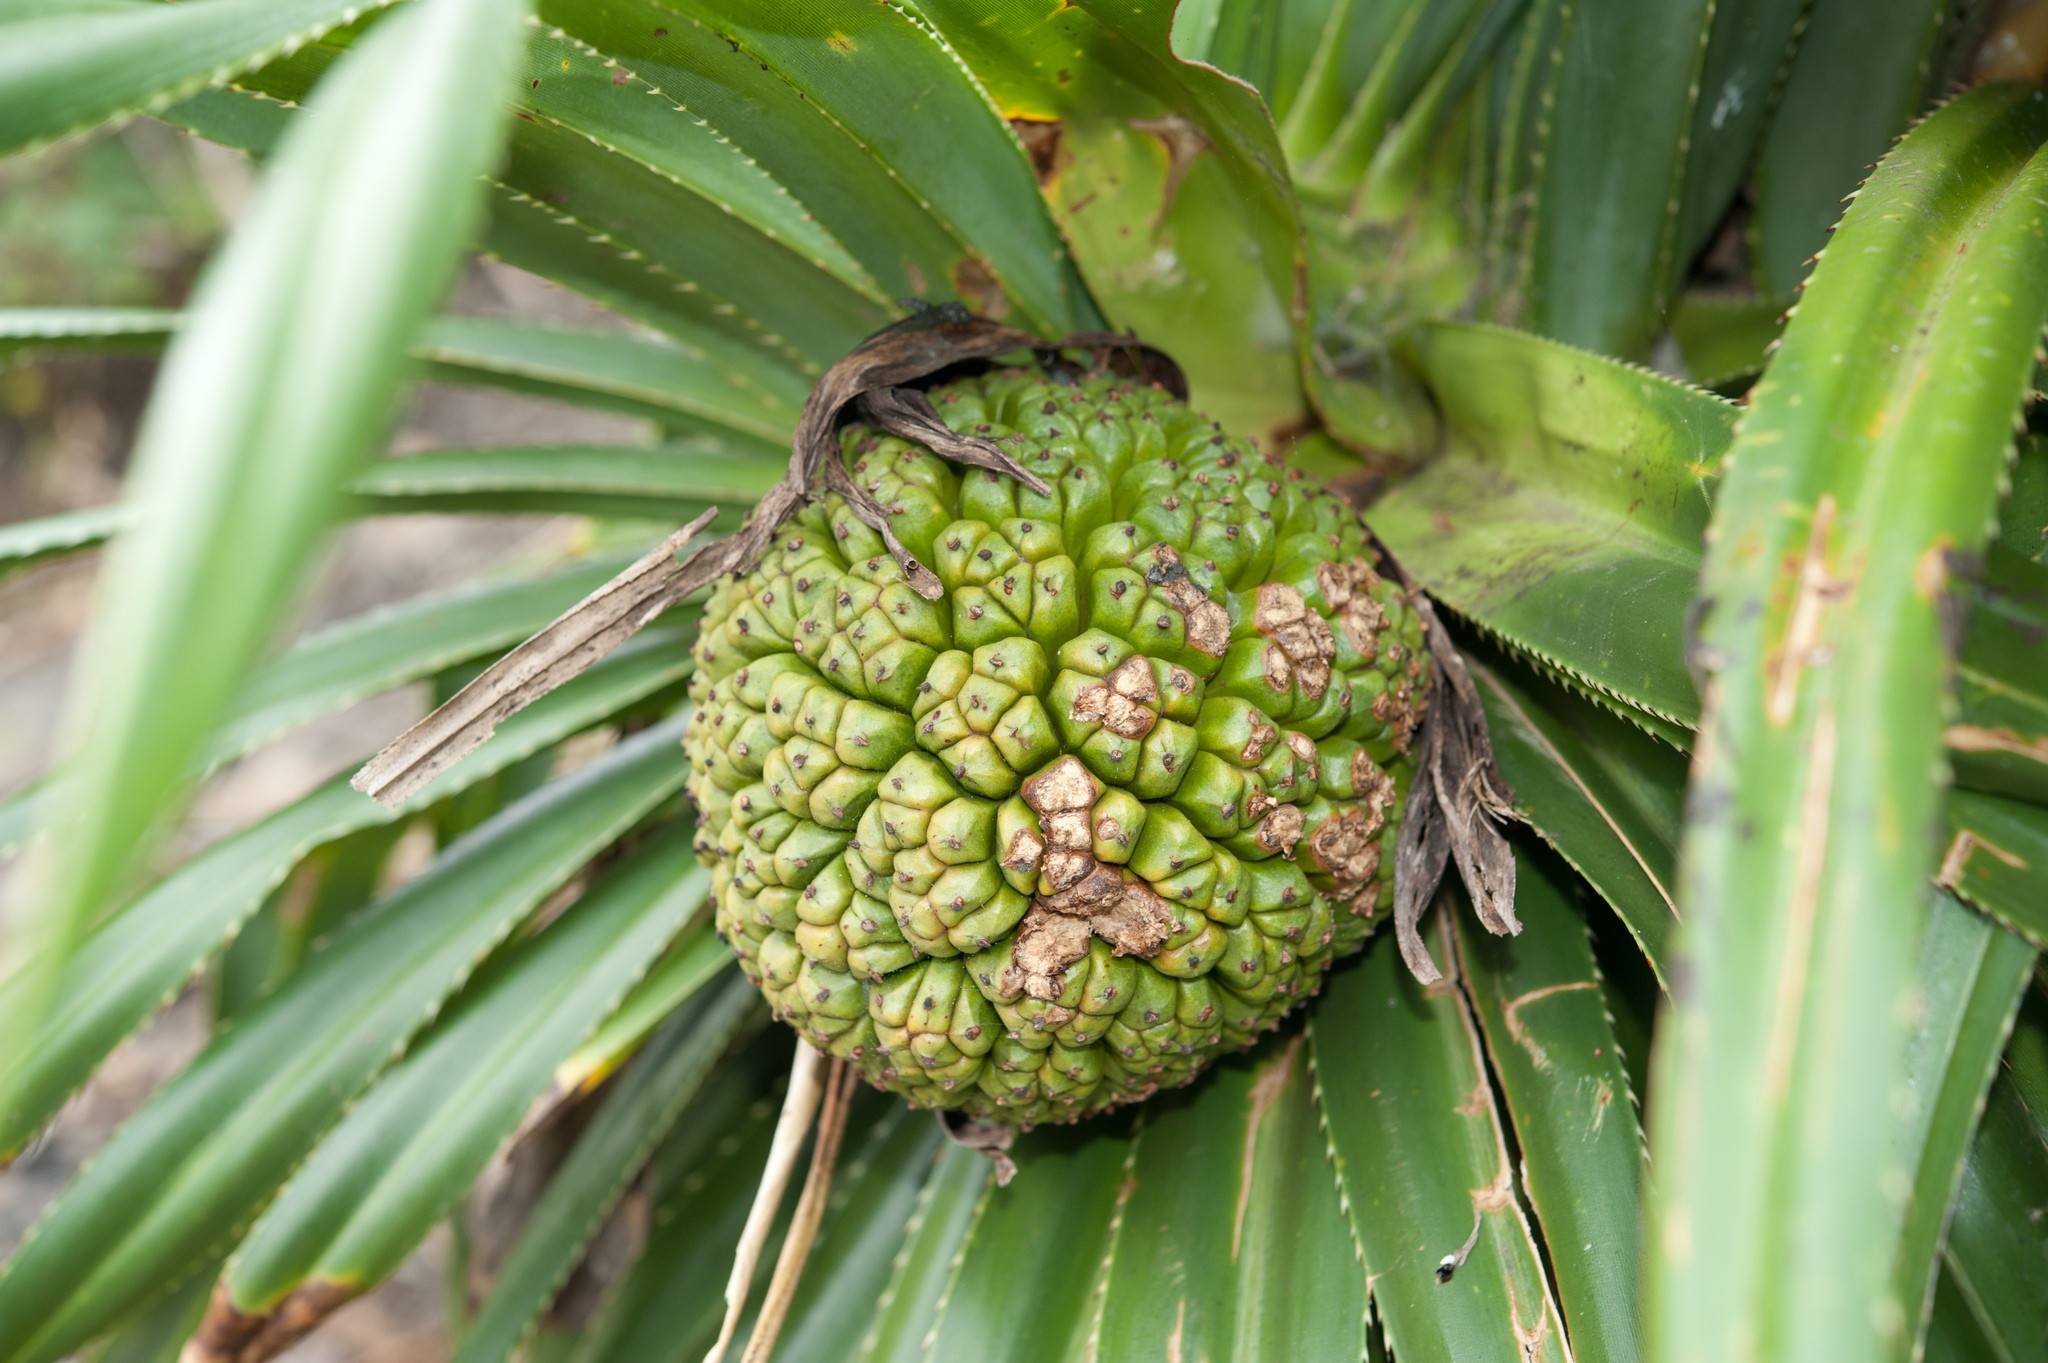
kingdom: Plantae
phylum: Tracheophyta
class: Liliopsida
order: Pandanales
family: Pandanaceae
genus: Pandanus
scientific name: Pandanus odorifer
